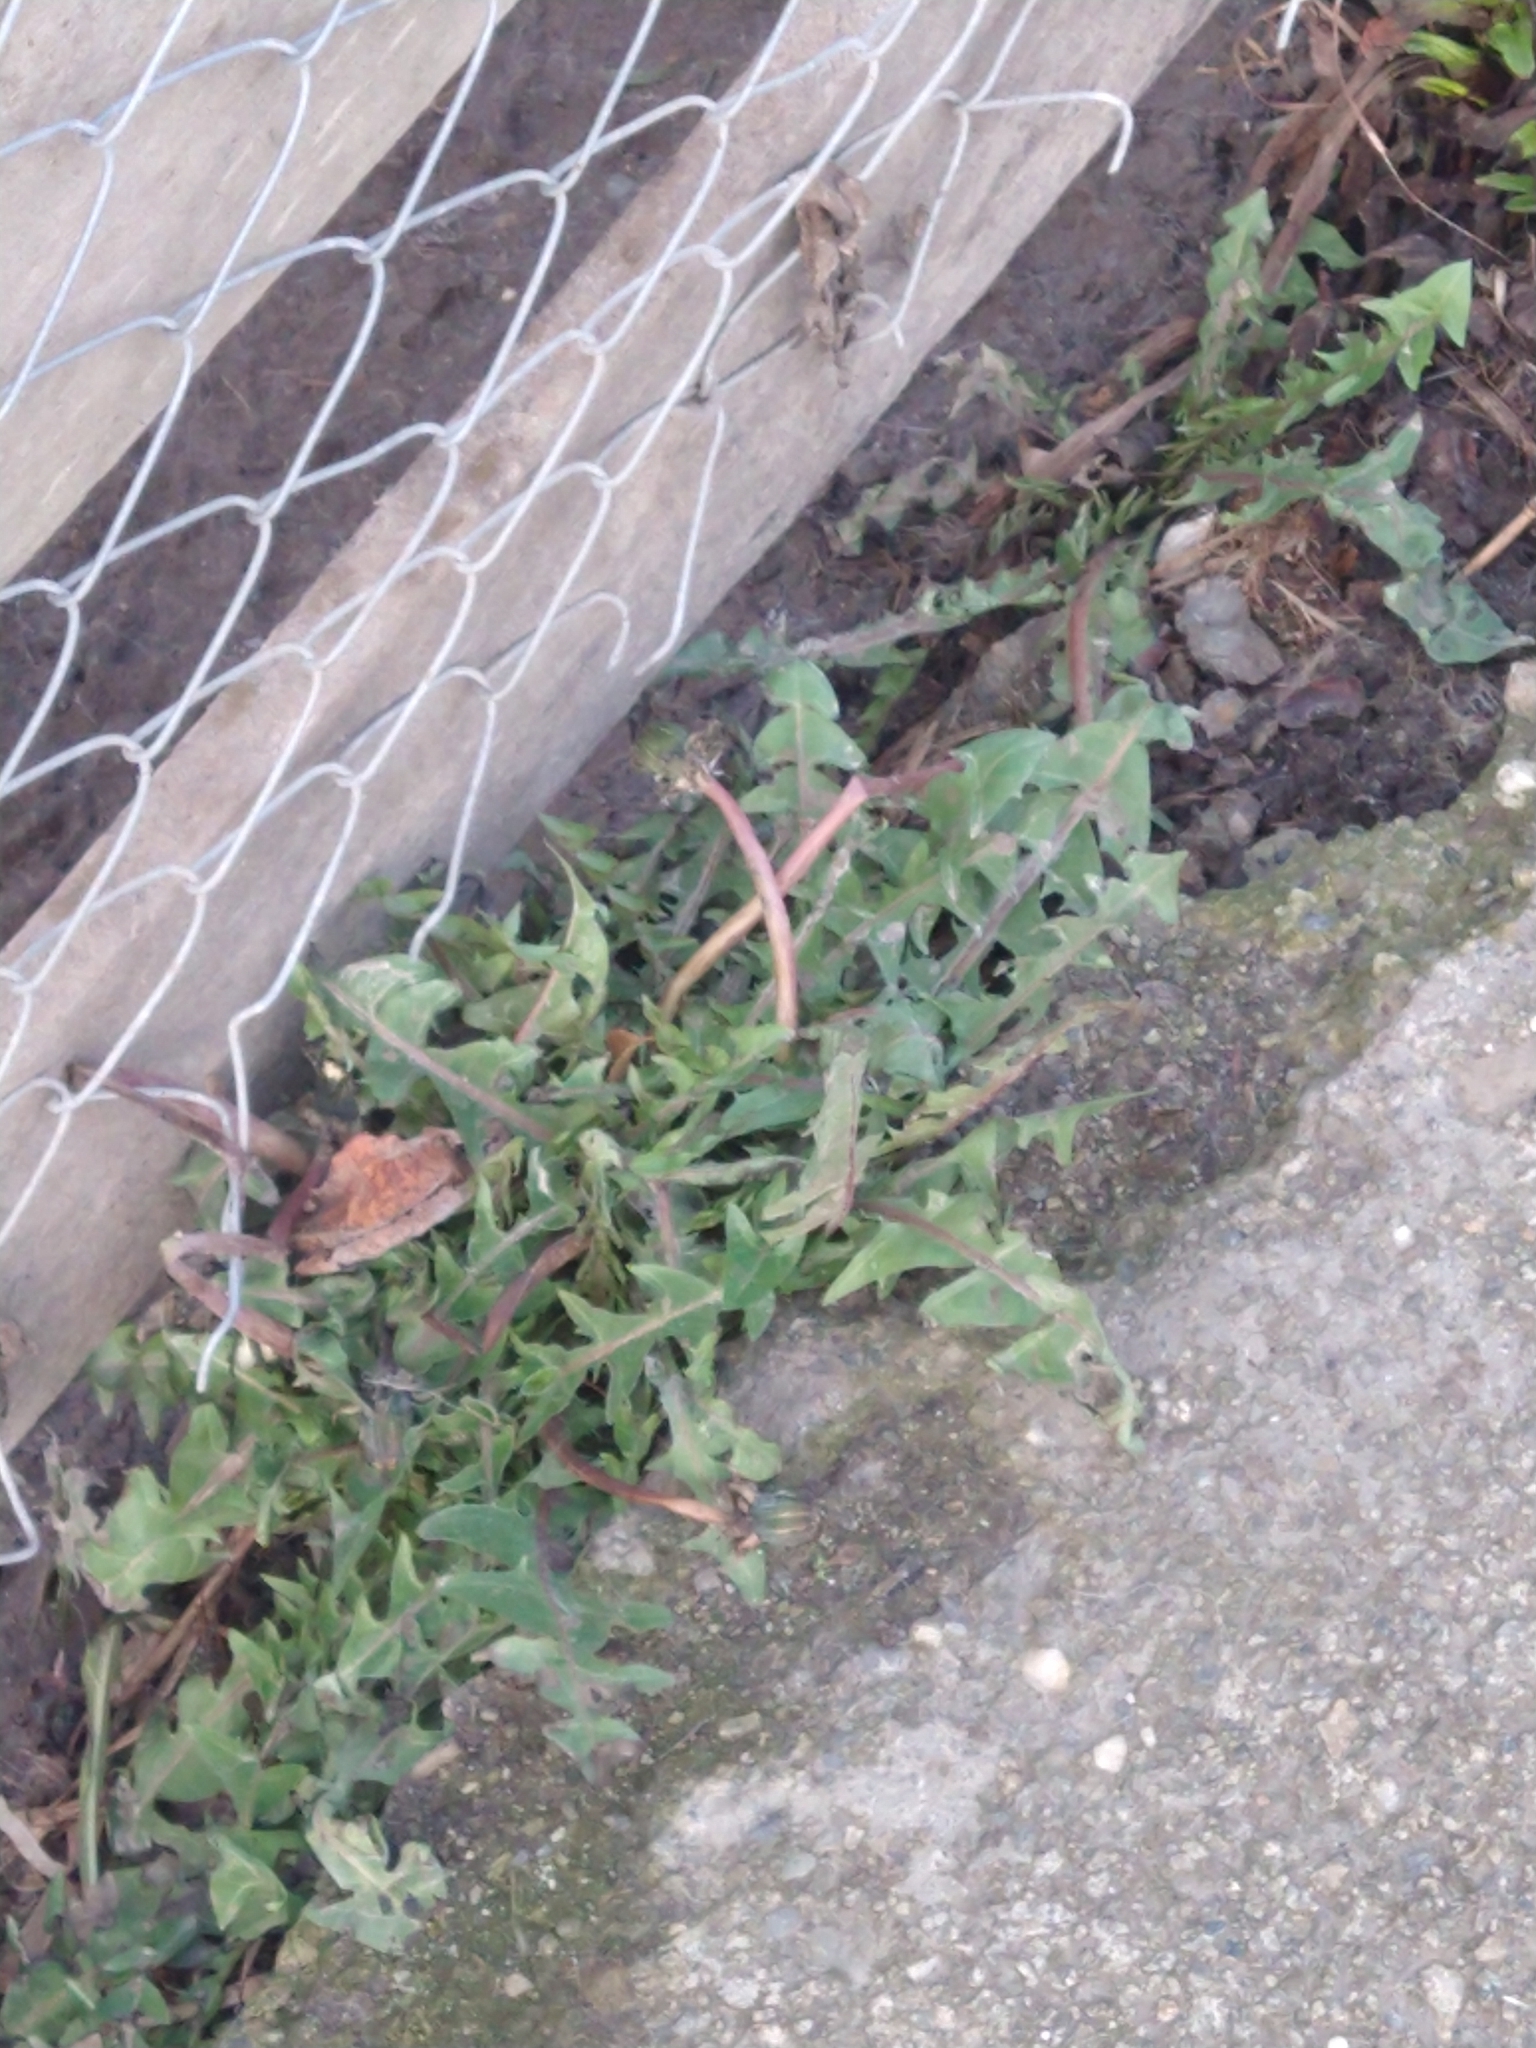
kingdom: Plantae
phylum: Tracheophyta
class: Magnoliopsida
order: Asterales
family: Asteraceae
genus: Taraxacum
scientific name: Taraxacum officinale
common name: Common dandelion
